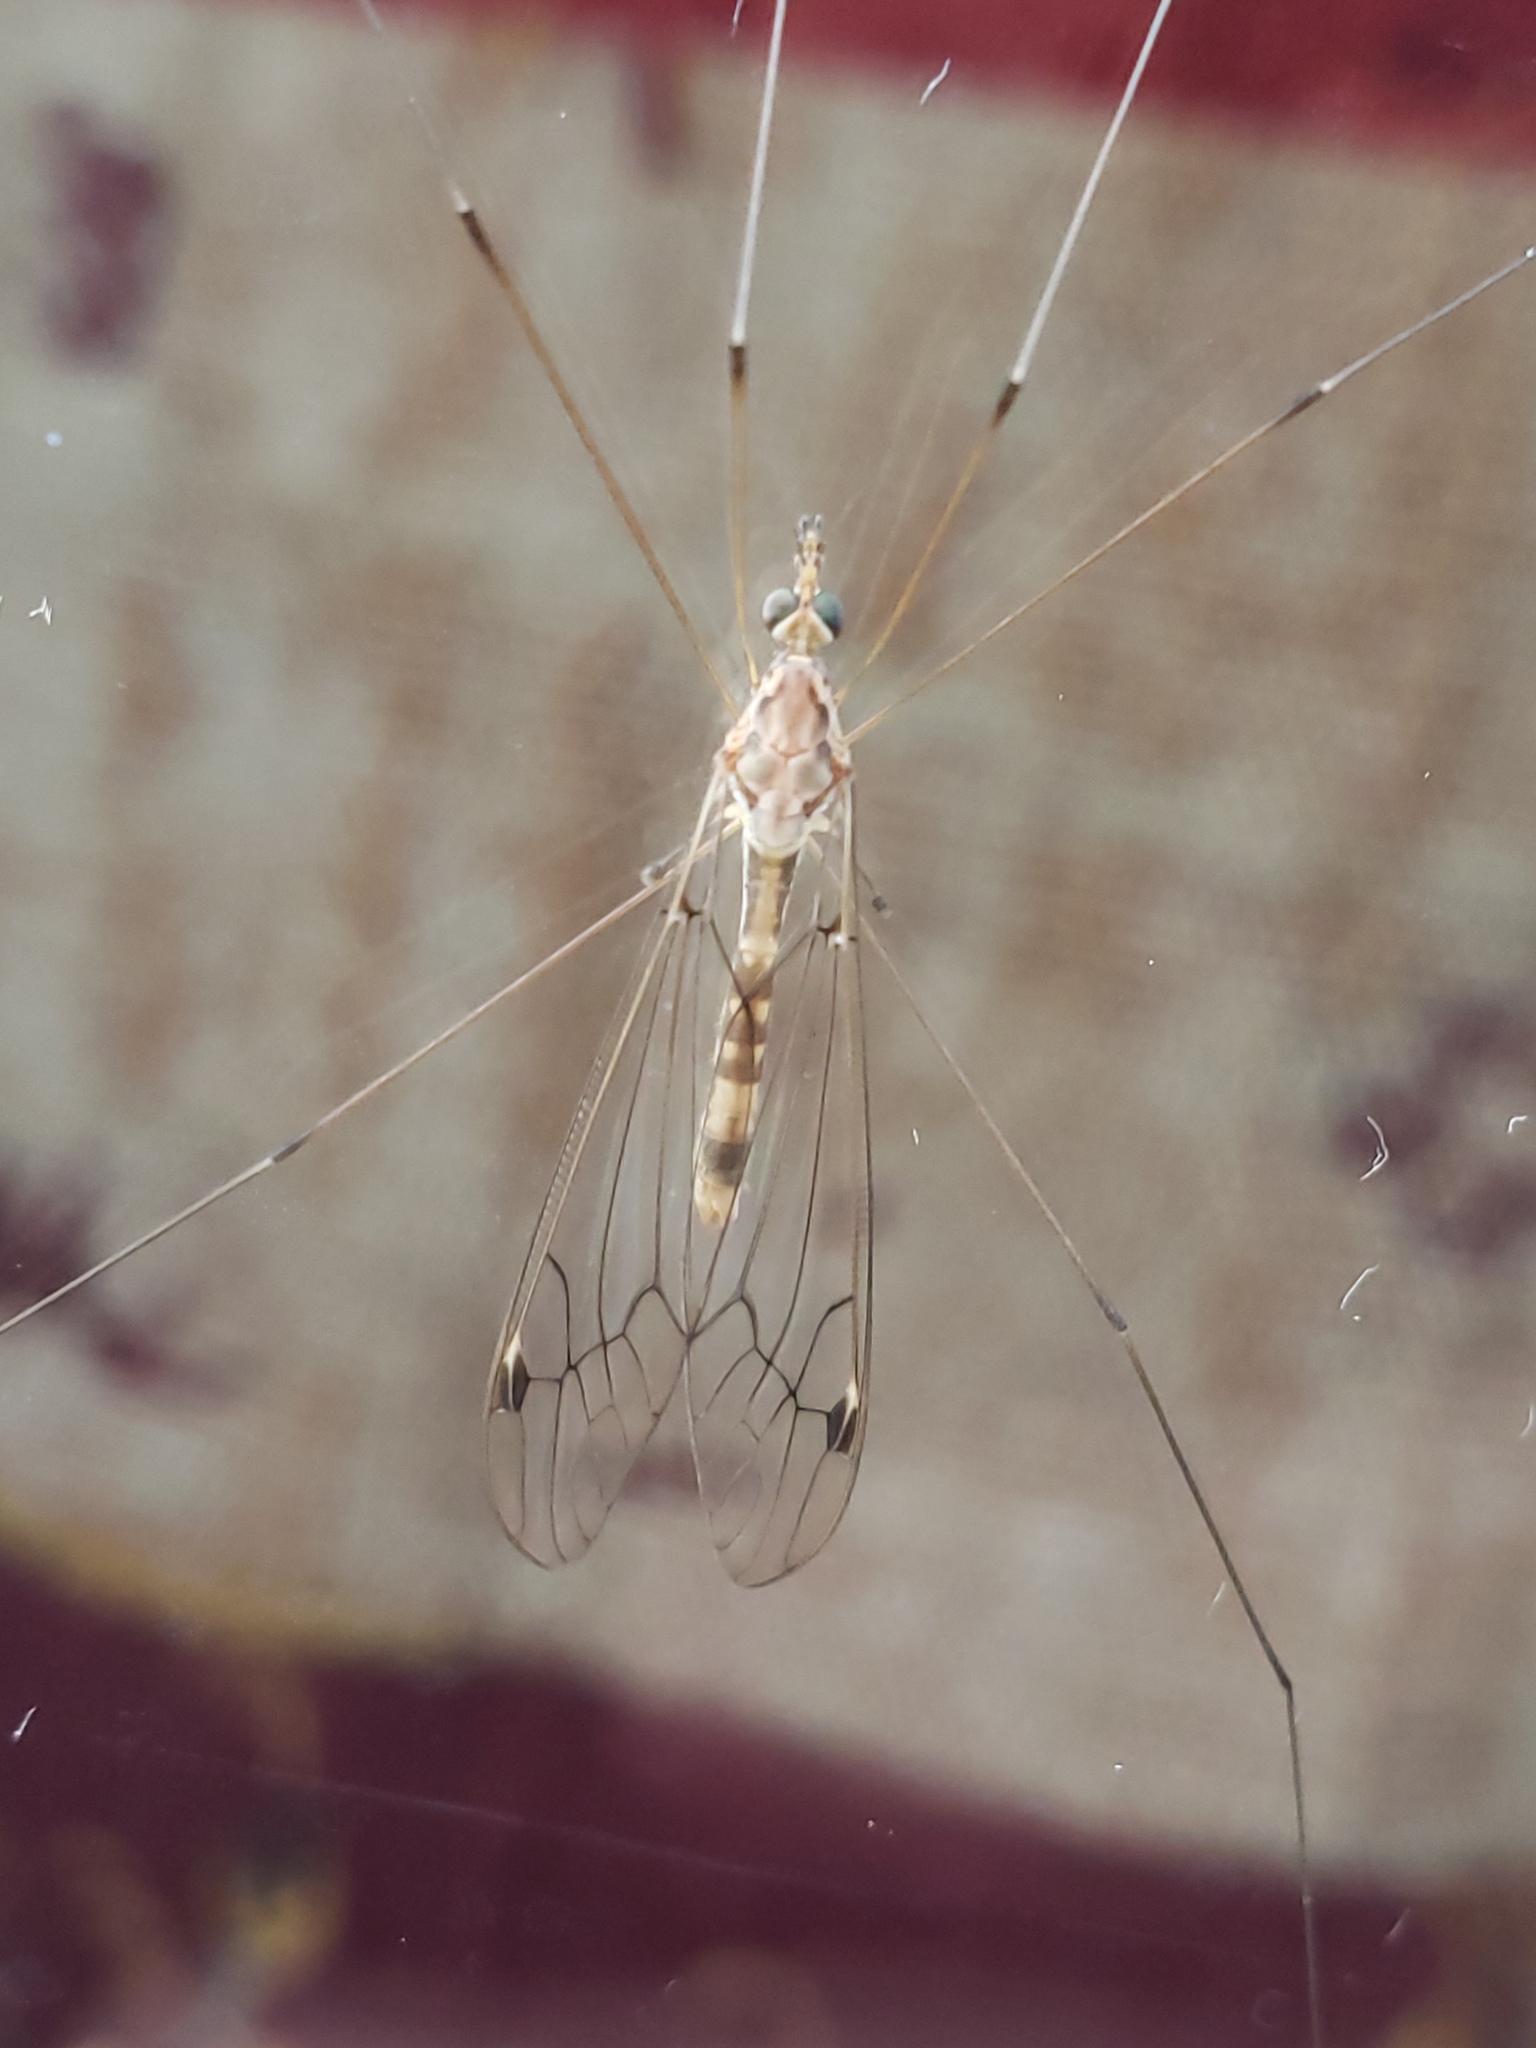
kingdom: Animalia
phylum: Arthropoda
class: Insecta
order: Diptera
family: Tipulidae
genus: Maekistocera
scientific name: Maekistocera longipennis
